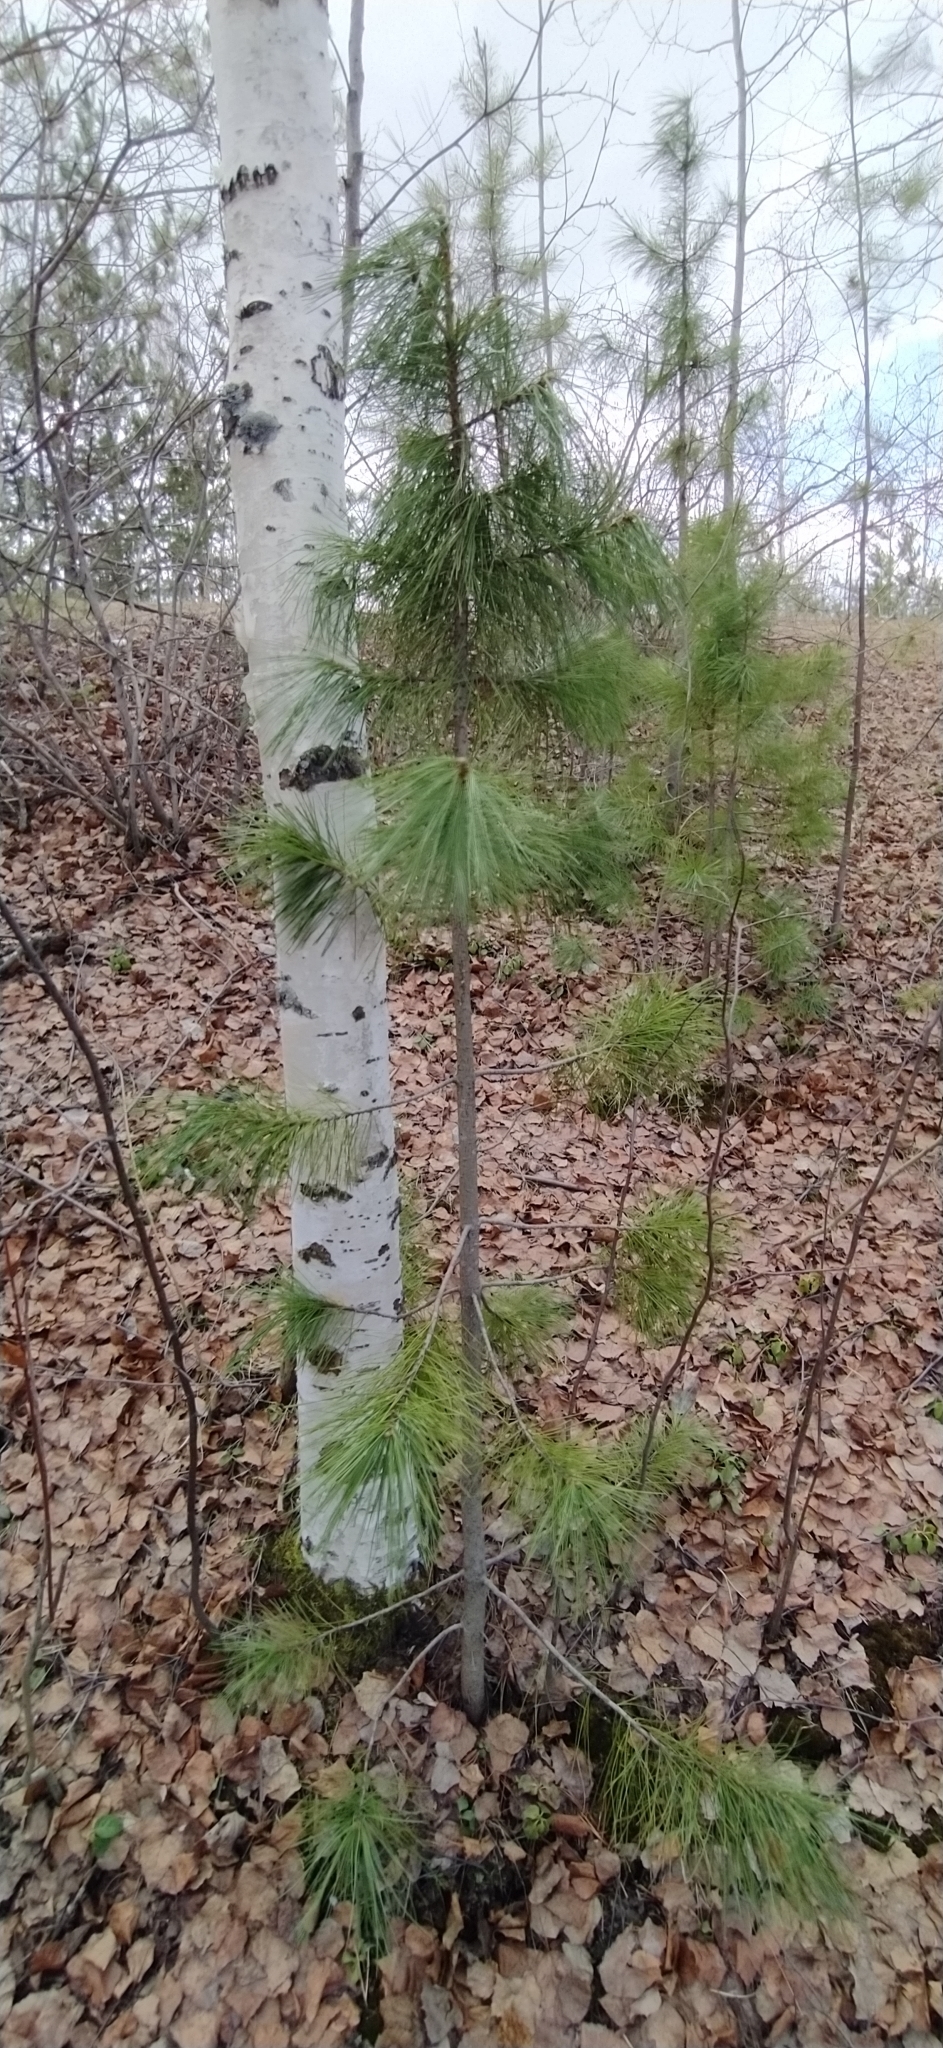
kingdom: Plantae
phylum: Tracheophyta
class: Pinopsida
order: Pinales
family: Pinaceae
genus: Pinus
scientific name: Pinus sibirica
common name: Siberian pine
